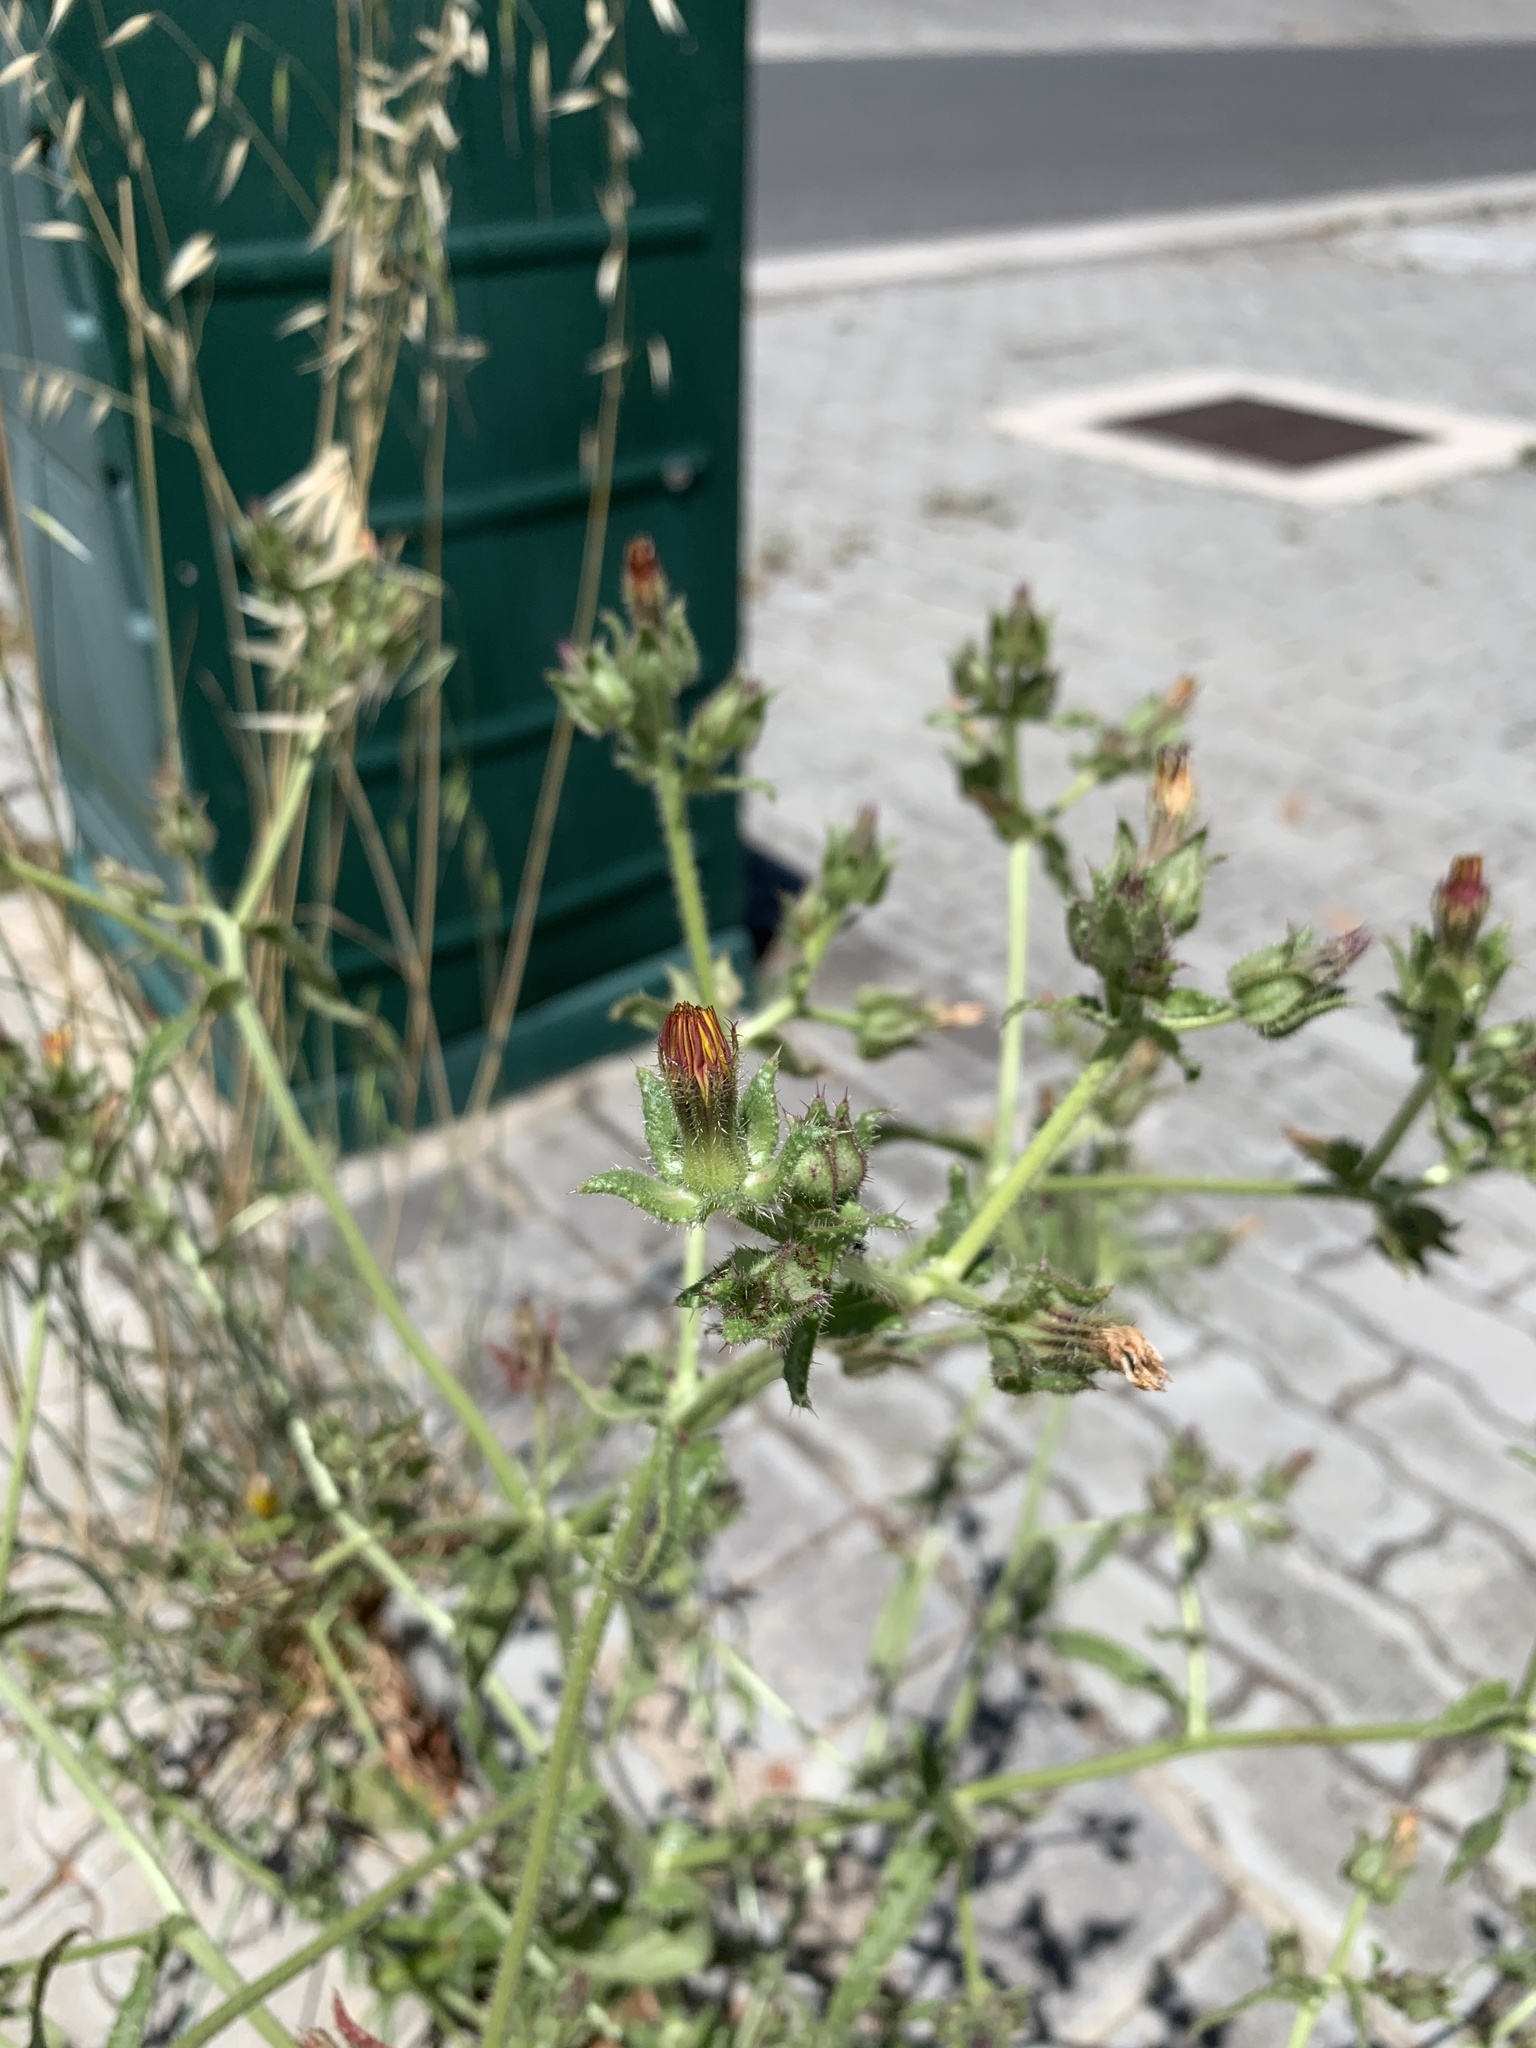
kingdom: Plantae
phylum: Tracheophyta
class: Magnoliopsida
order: Asterales
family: Asteraceae
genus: Helminthotheca
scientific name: Helminthotheca echioides
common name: Ox-tongue
